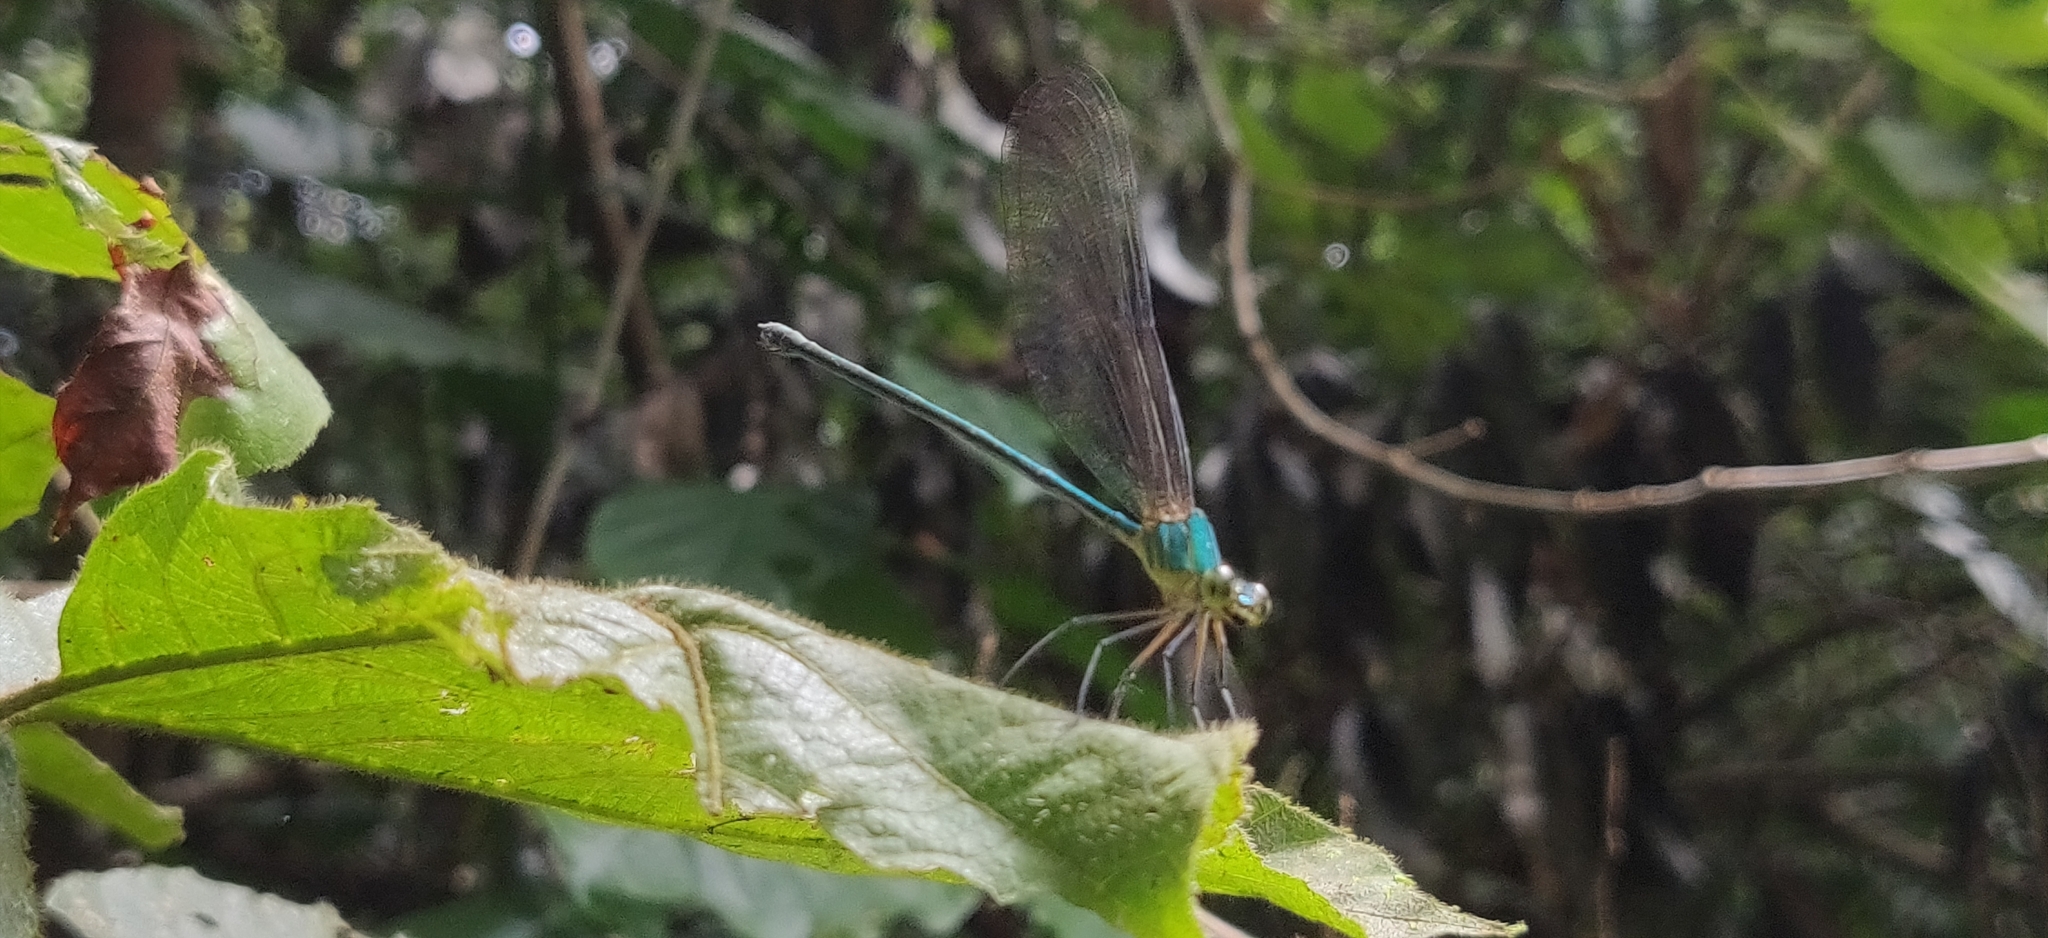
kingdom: Animalia
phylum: Arthropoda
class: Insecta
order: Odonata
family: Calopterygidae
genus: Vestalis
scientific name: Vestalis gracilis
